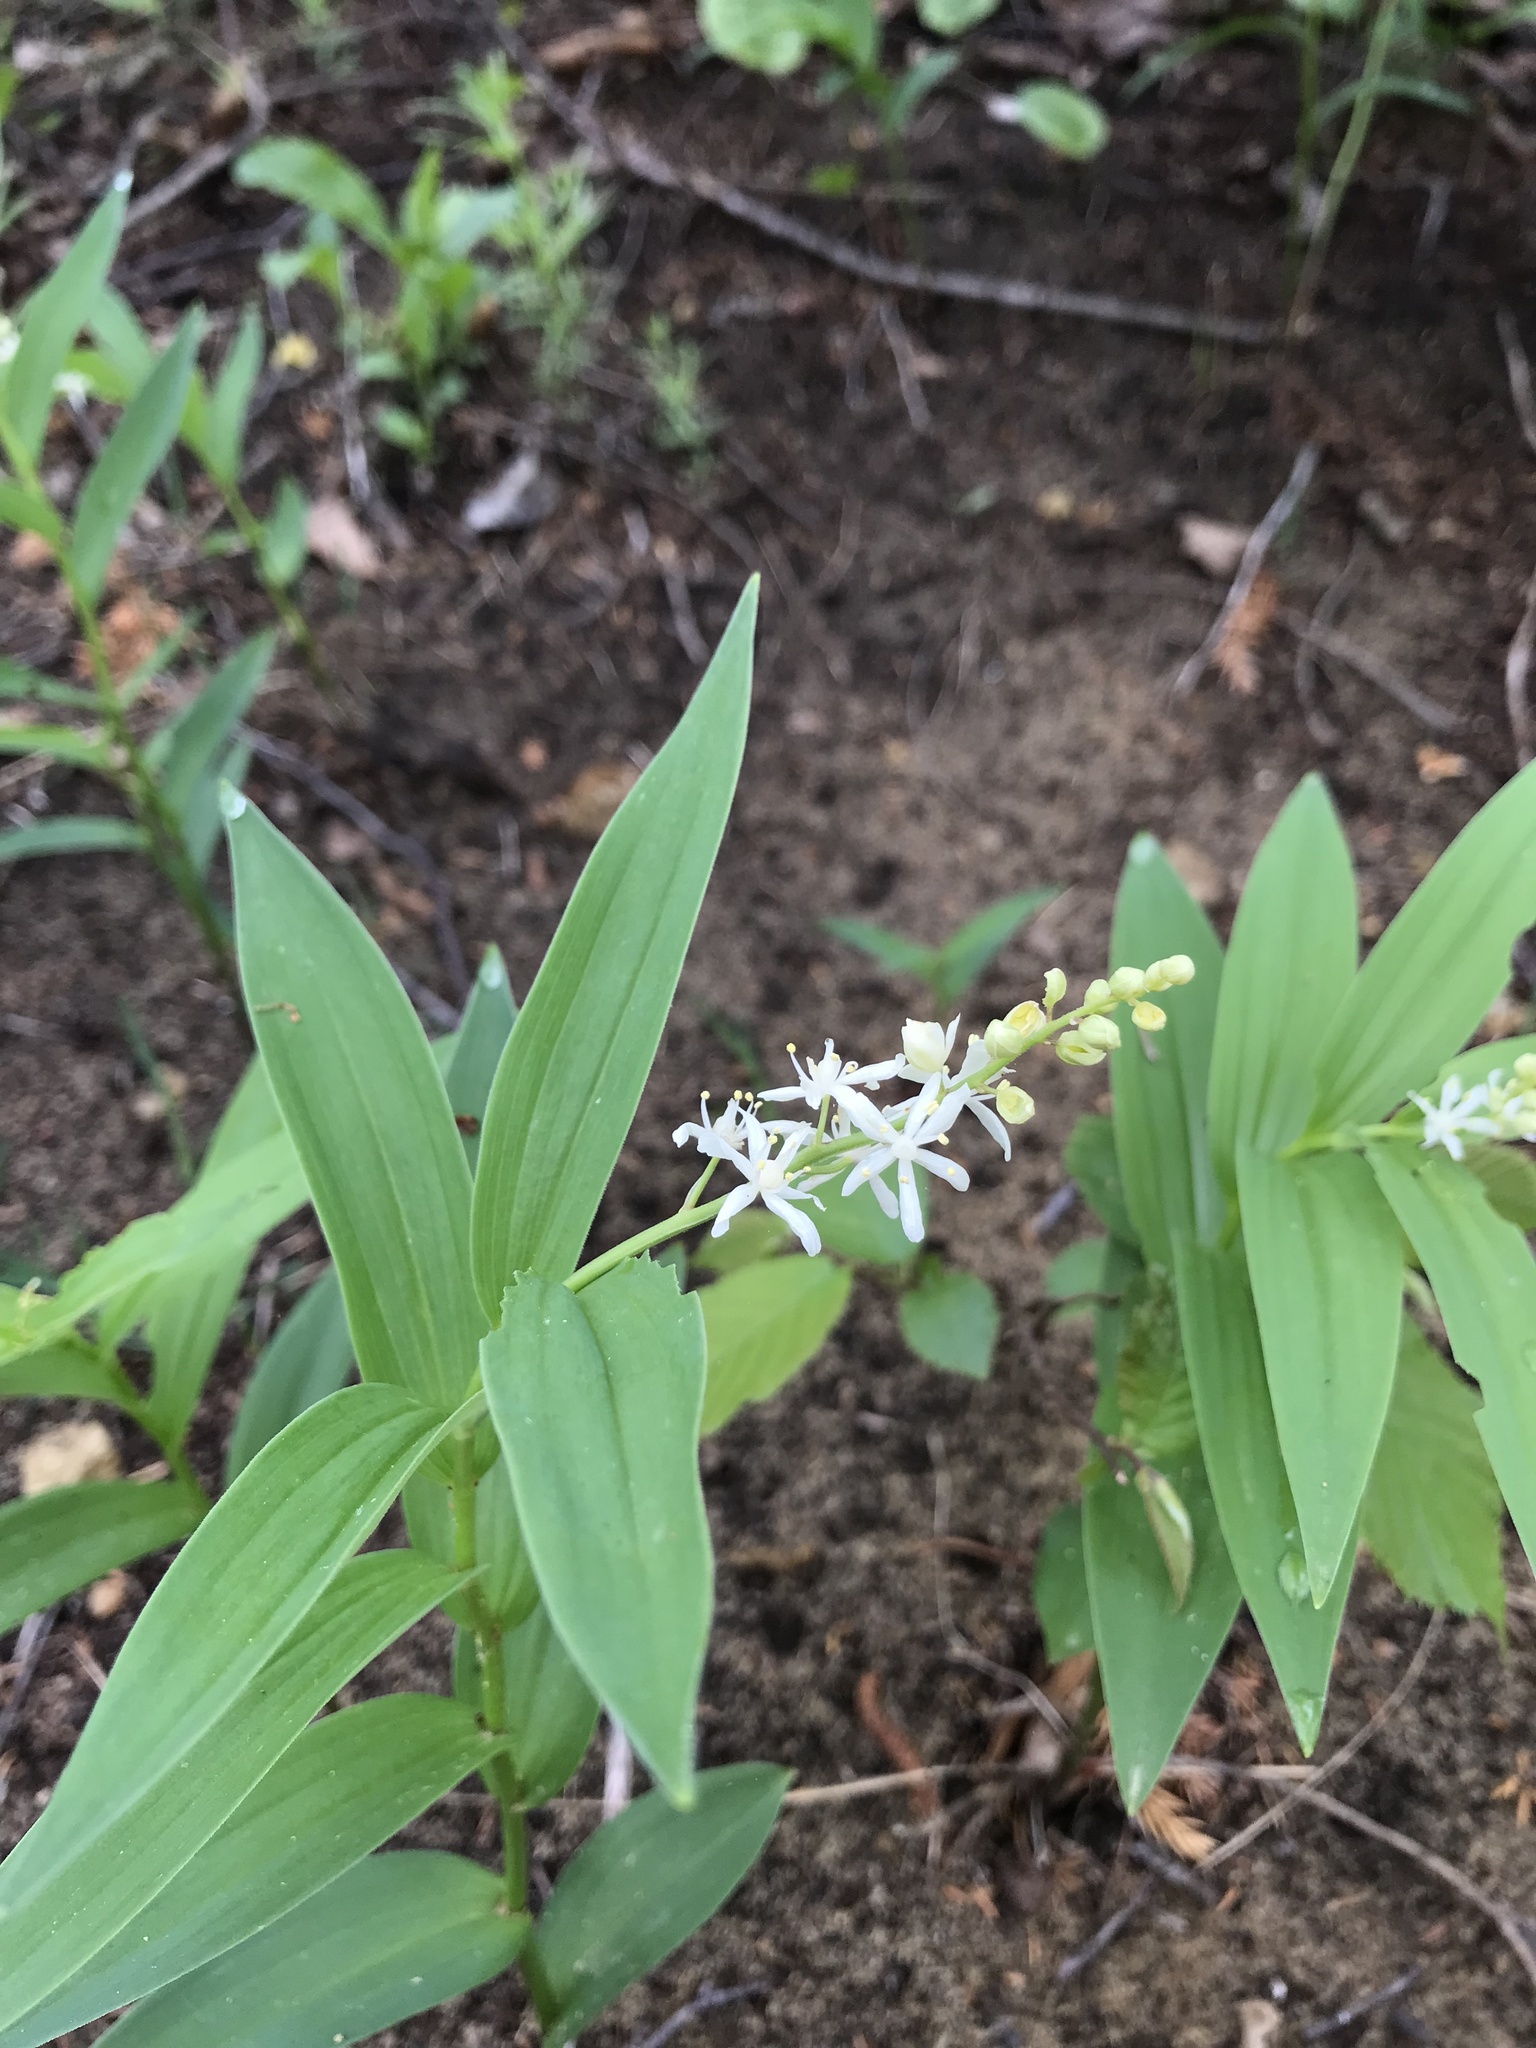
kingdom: Plantae
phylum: Tracheophyta
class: Liliopsida
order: Asparagales
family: Asparagaceae
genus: Maianthemum
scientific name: Maianthemum stellatum
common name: Little false solomon's seal
